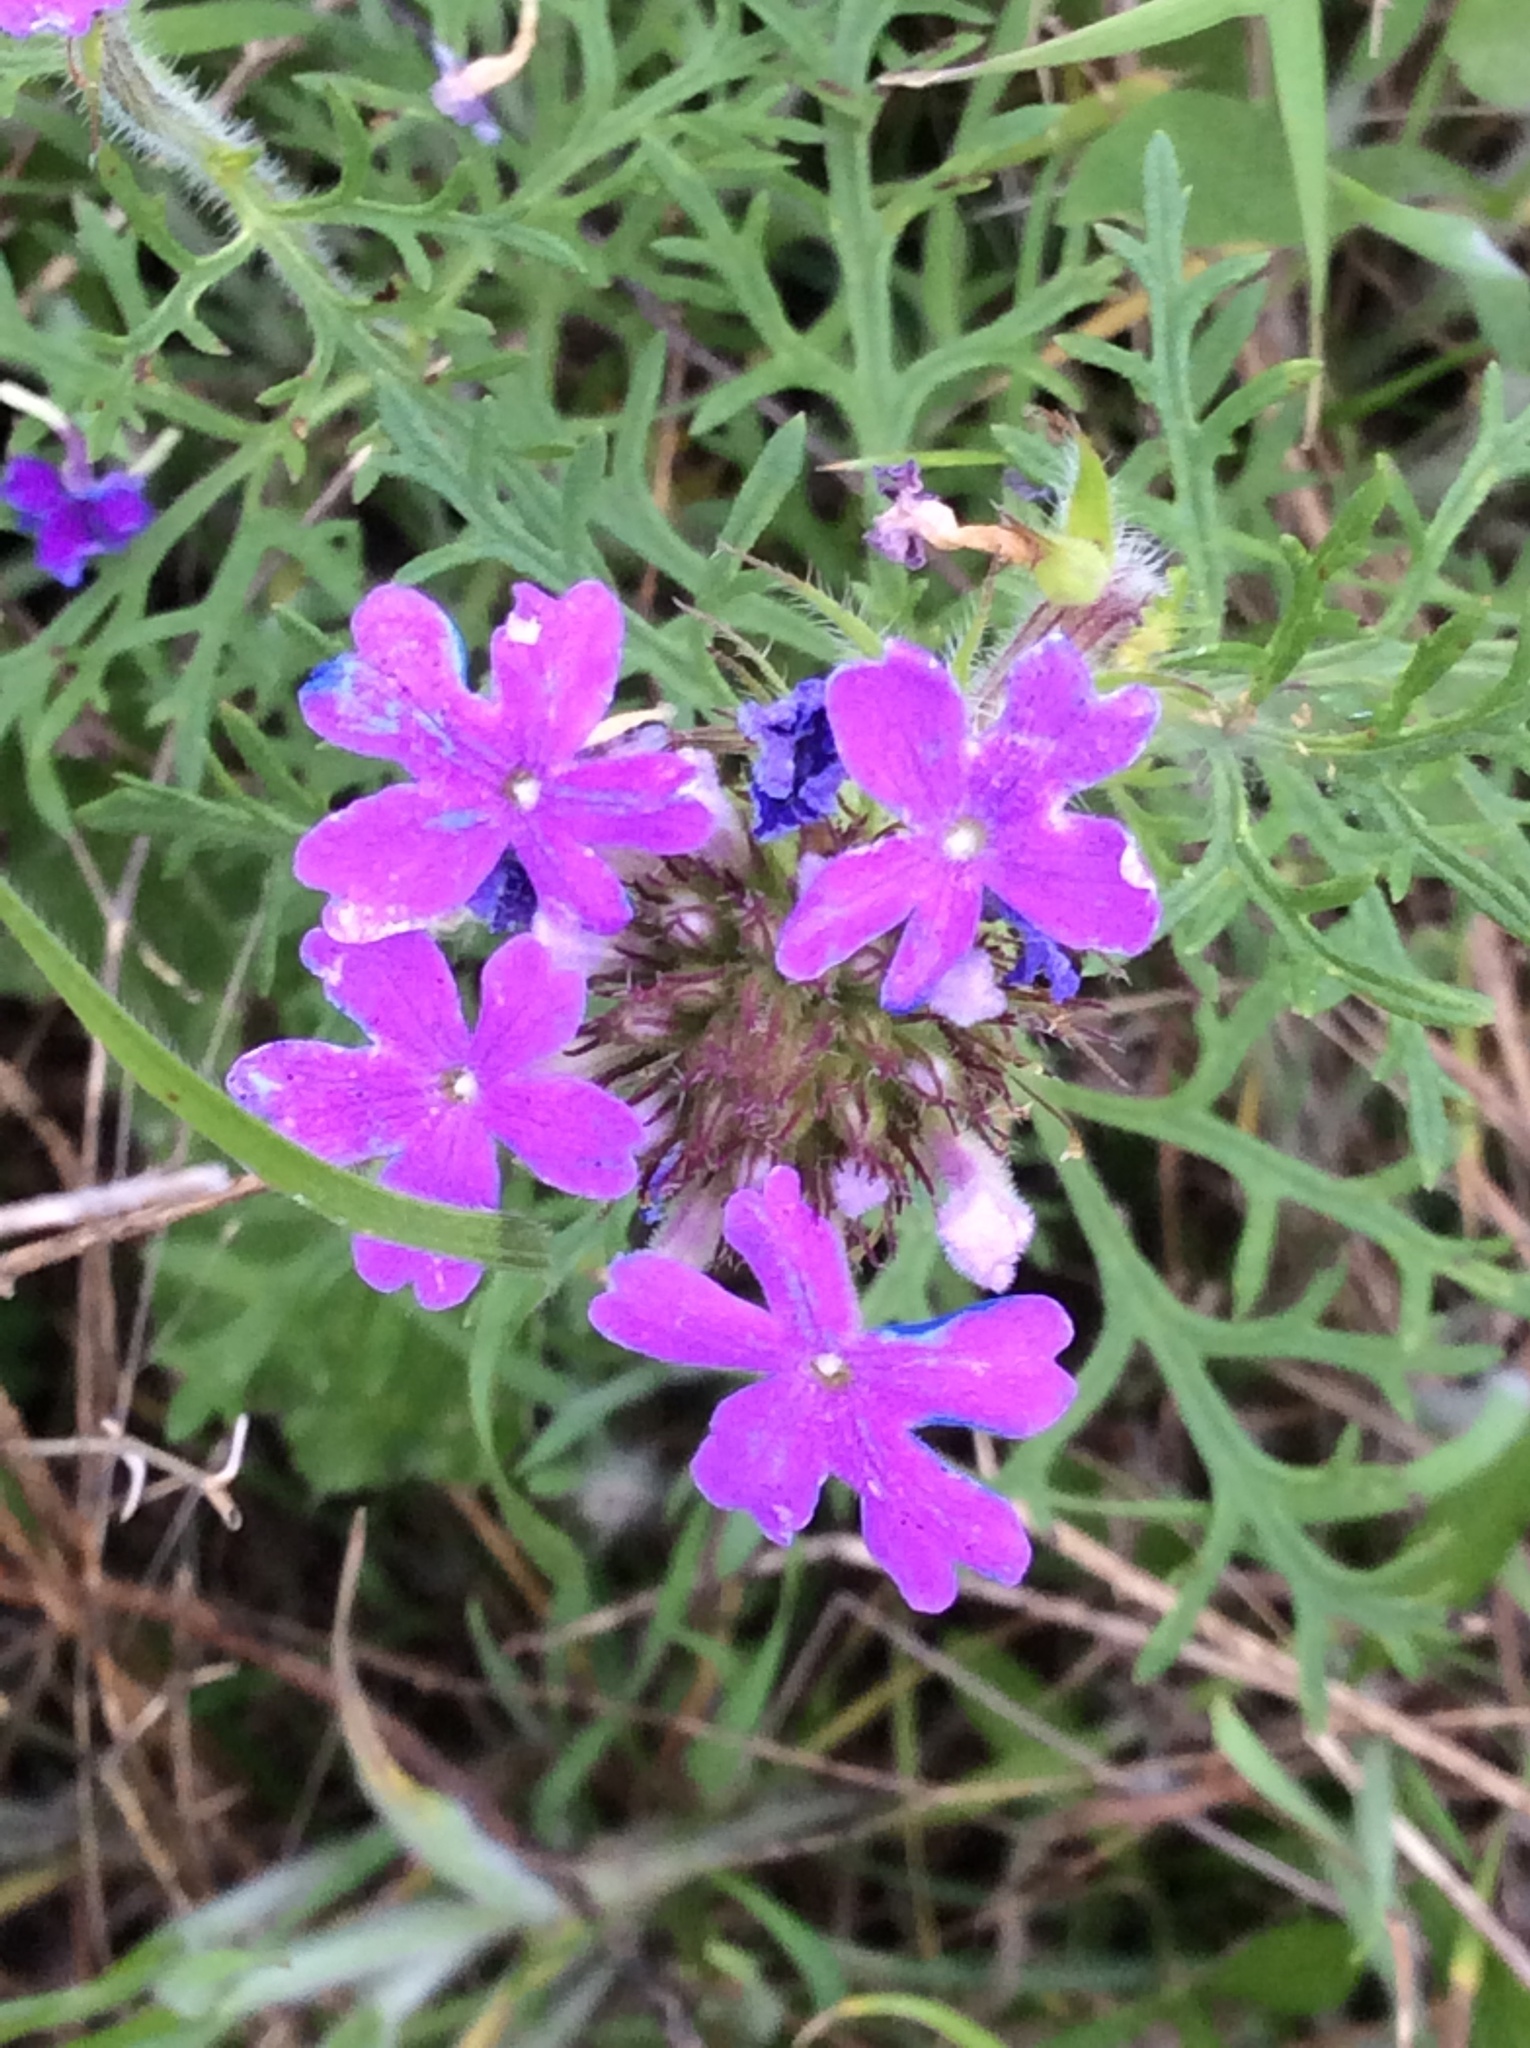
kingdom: Plantae
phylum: Tracheophyta
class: Magnoliopsida
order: Lamiales
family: Verbenaceae
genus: Verbena
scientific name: Verbena bipinnatifida
